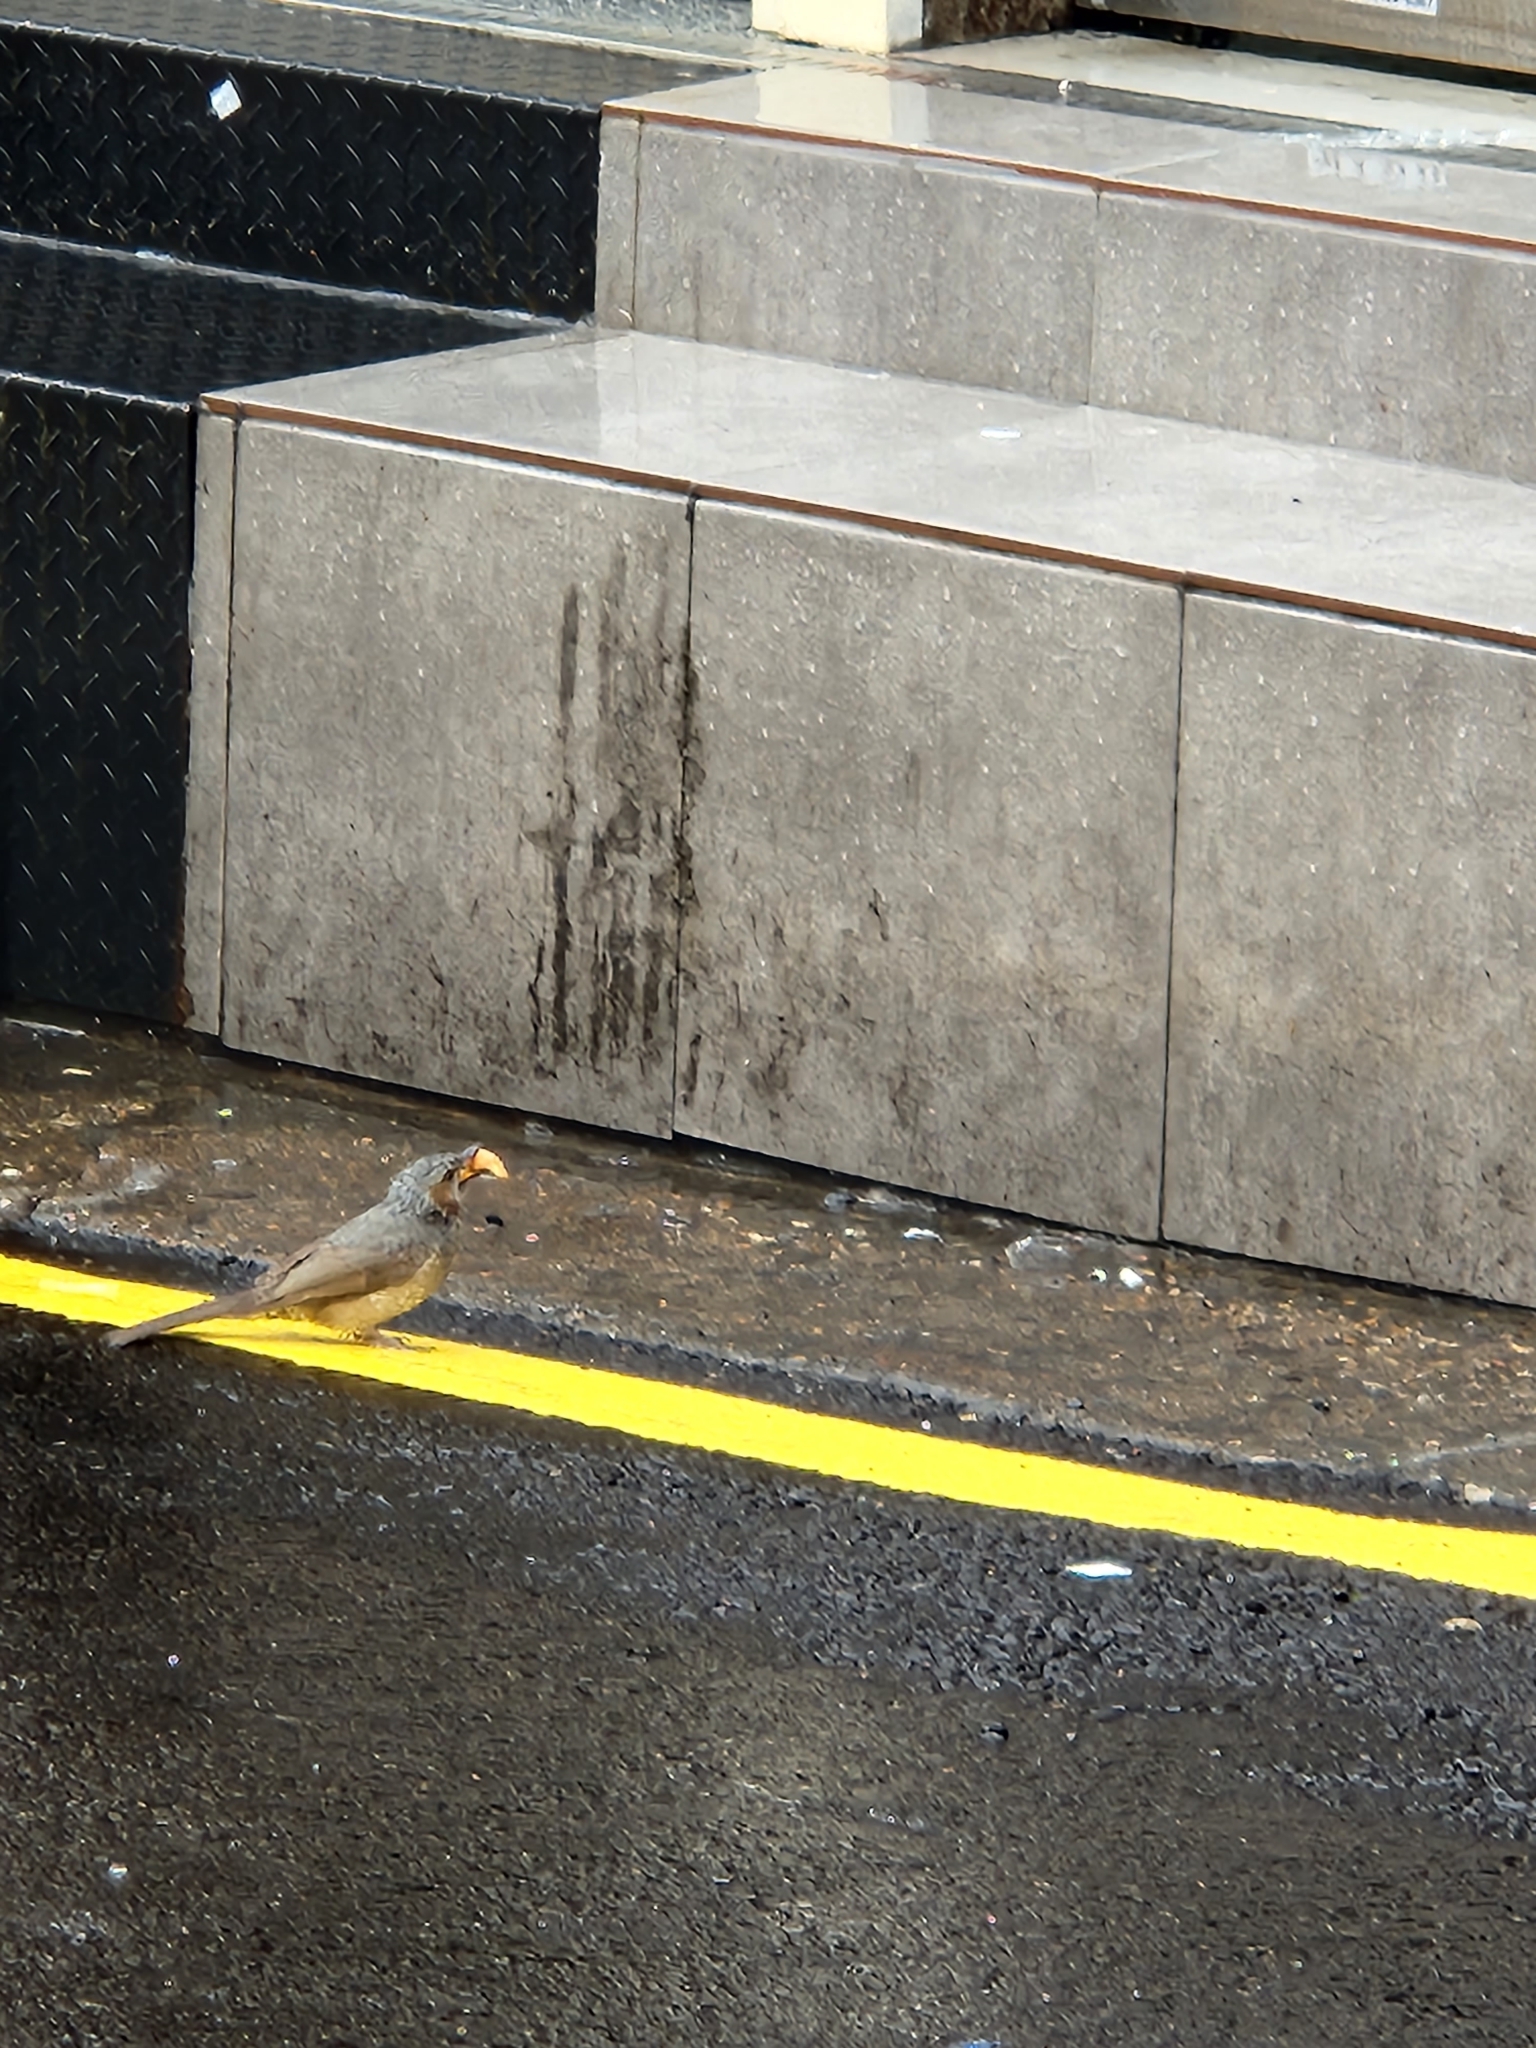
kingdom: Animalia
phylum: Chordata
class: Aves
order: Passeriformes
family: Pycnonotidae
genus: Hypsipetes
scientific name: Hypsipetes amaurotis
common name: Brown-eared bulbul
